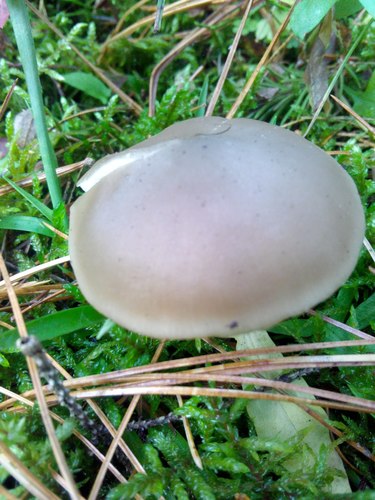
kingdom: Fungi
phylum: Basidiomycota
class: Agaricomycetes
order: Agaricales
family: Entolomataceae
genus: Entoloma
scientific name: Entoloma
